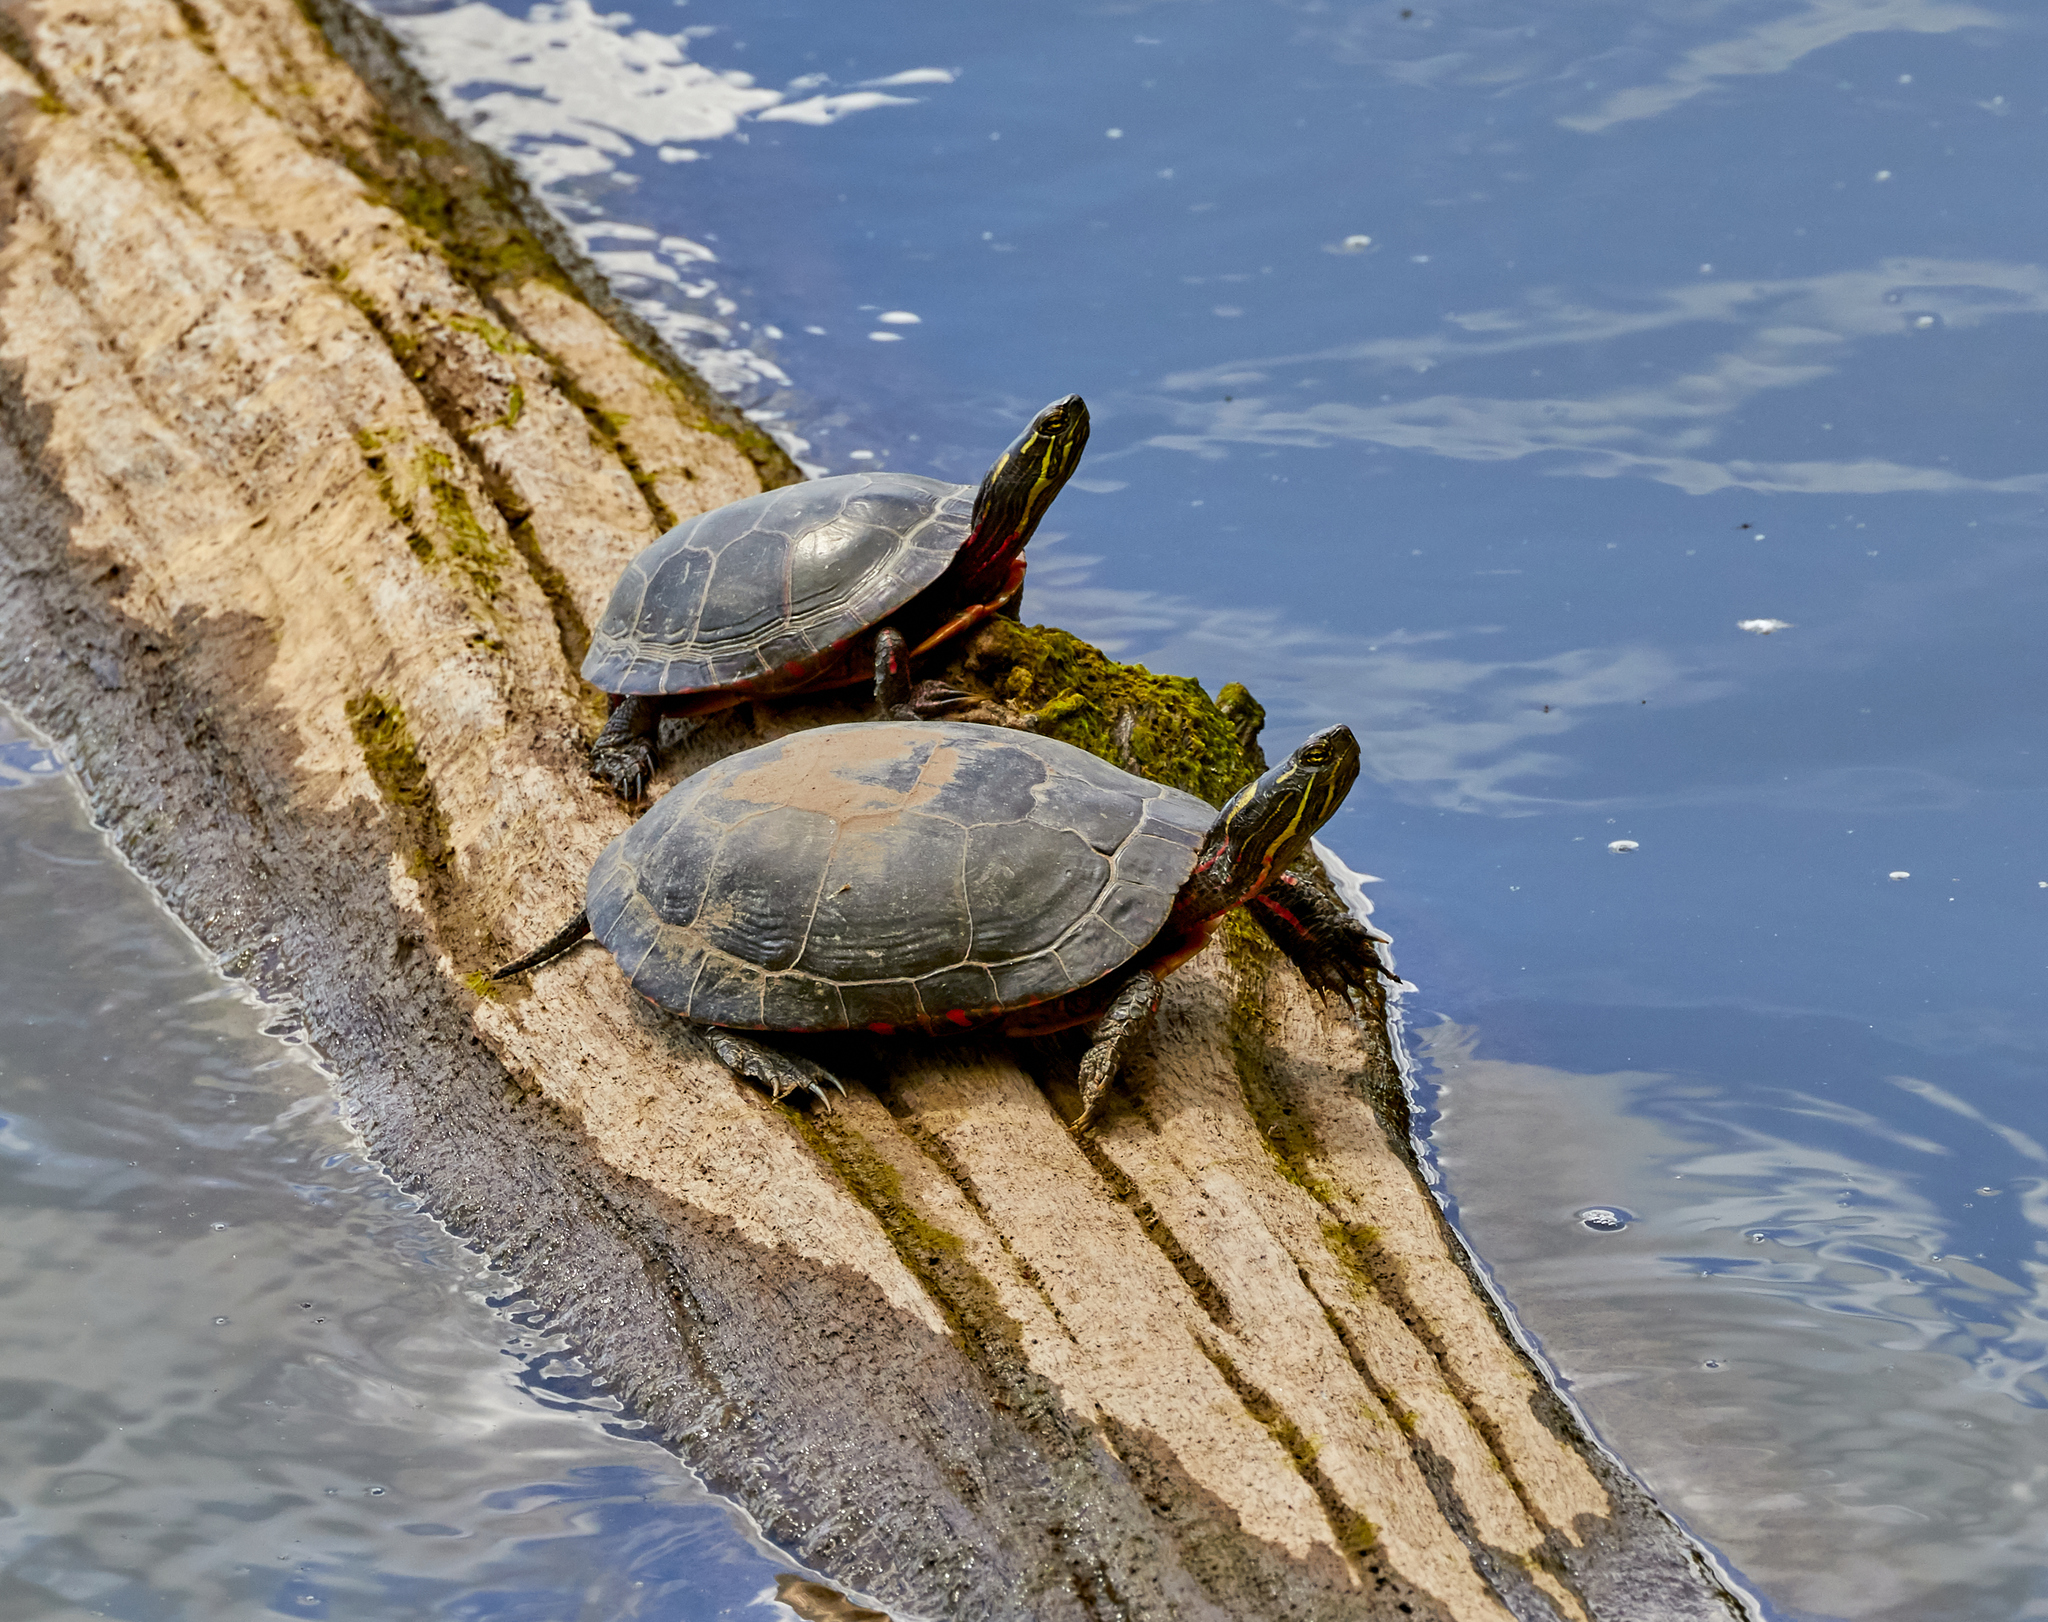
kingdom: Animalia
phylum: Chordata
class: Testudines
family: Emydidae
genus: Chrysemys
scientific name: Chrysemys picta
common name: Painted turtle
